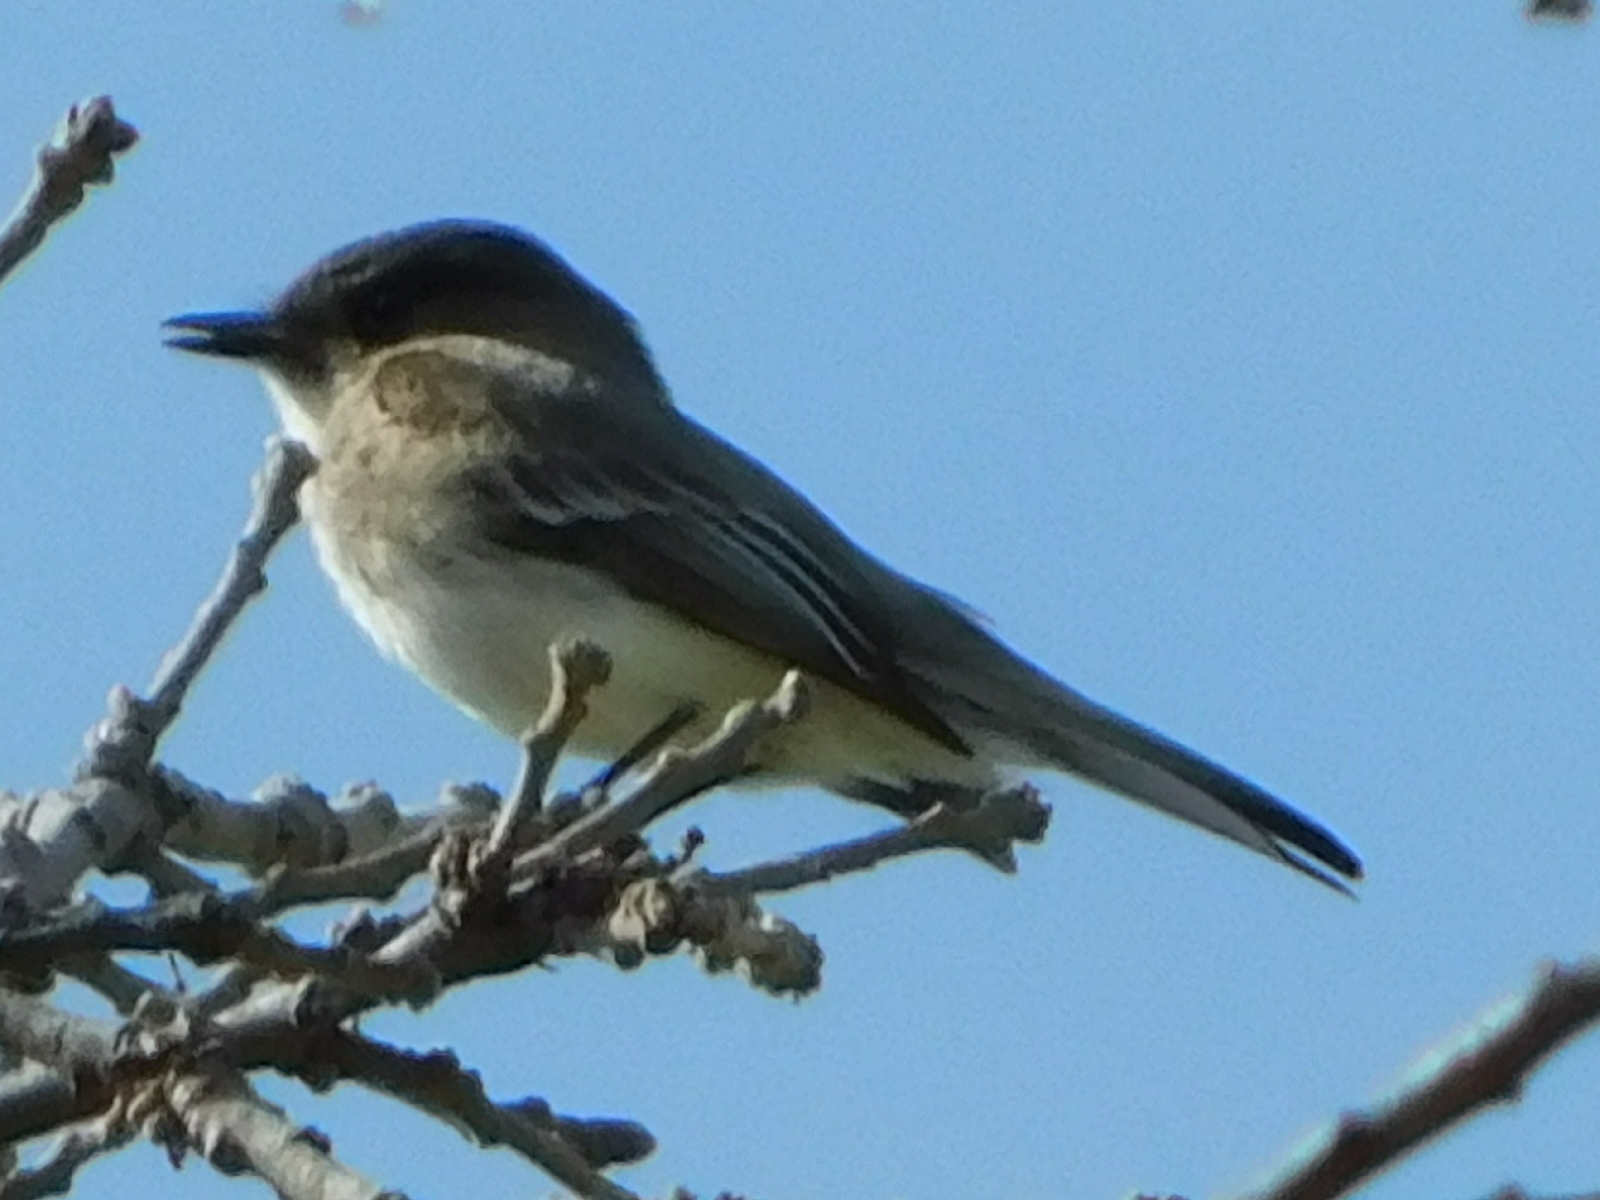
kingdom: Animalia
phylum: Chordata
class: Aves
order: Passeriformes
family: Tyrannidae
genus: Sayornis
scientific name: Sayornis phoebe
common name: Eastern phoebe
